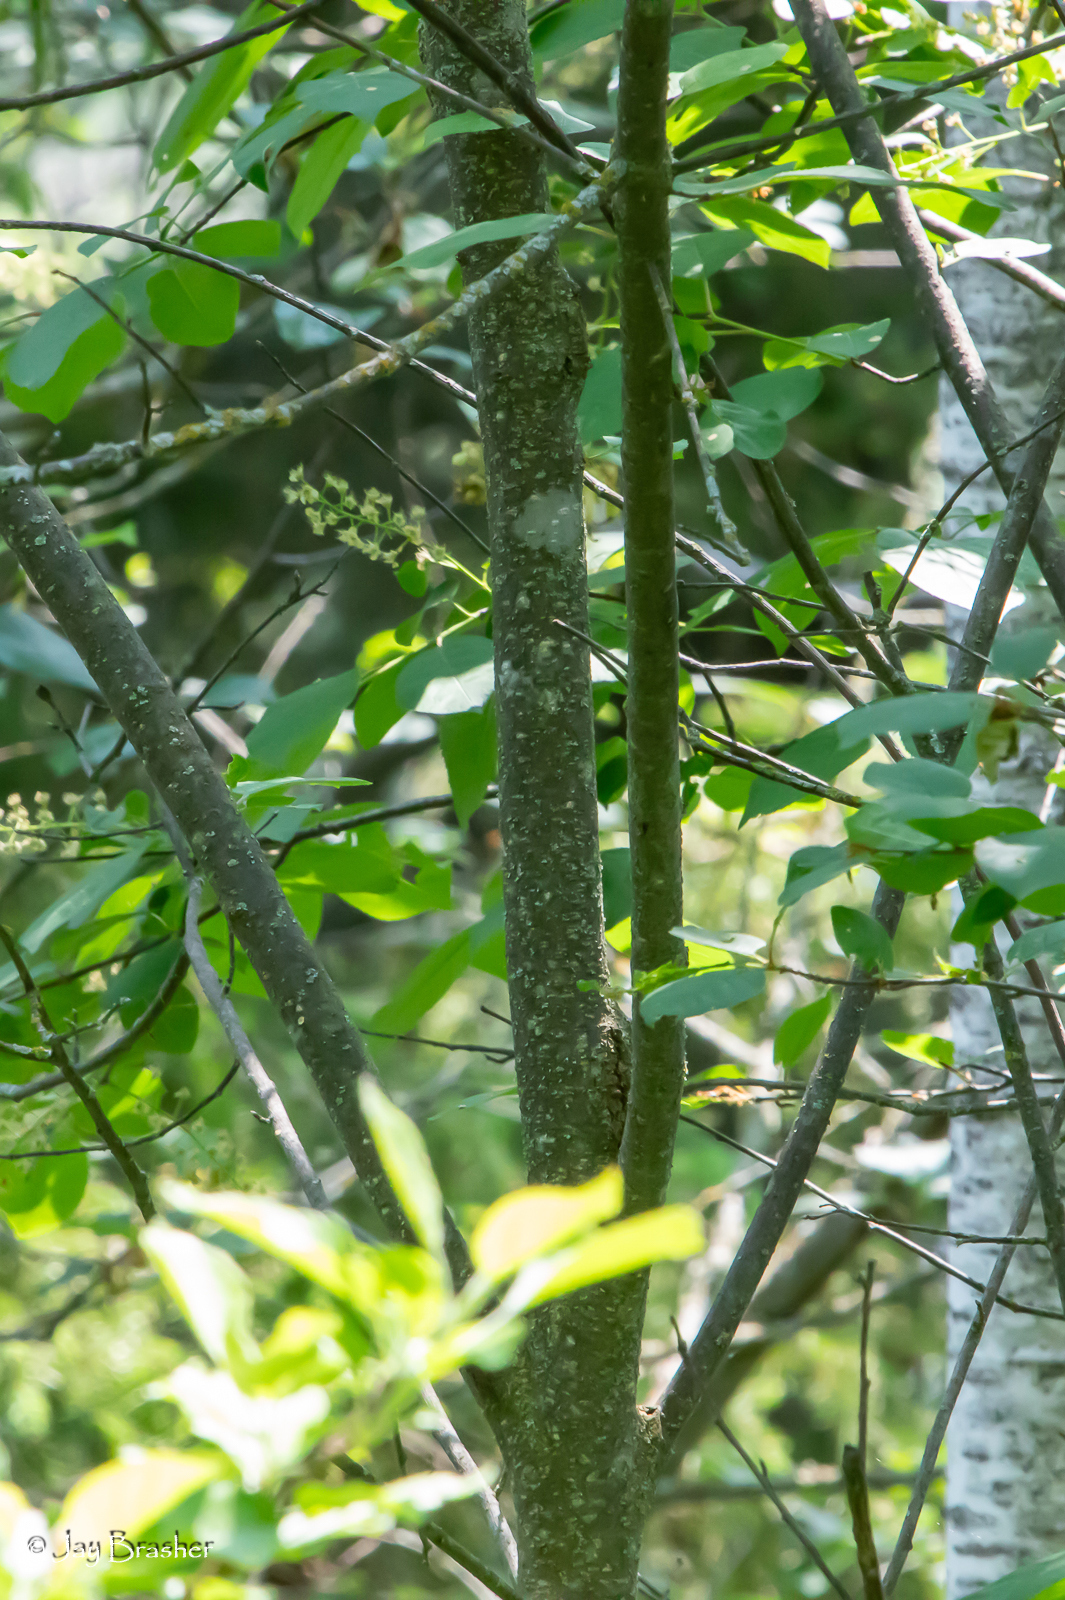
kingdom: Plantae
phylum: Tracheophyta
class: Magnoliopsida
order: Rosales
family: Rosaceae
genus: Prunus
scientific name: Prunus virginiana
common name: Chokecherry
